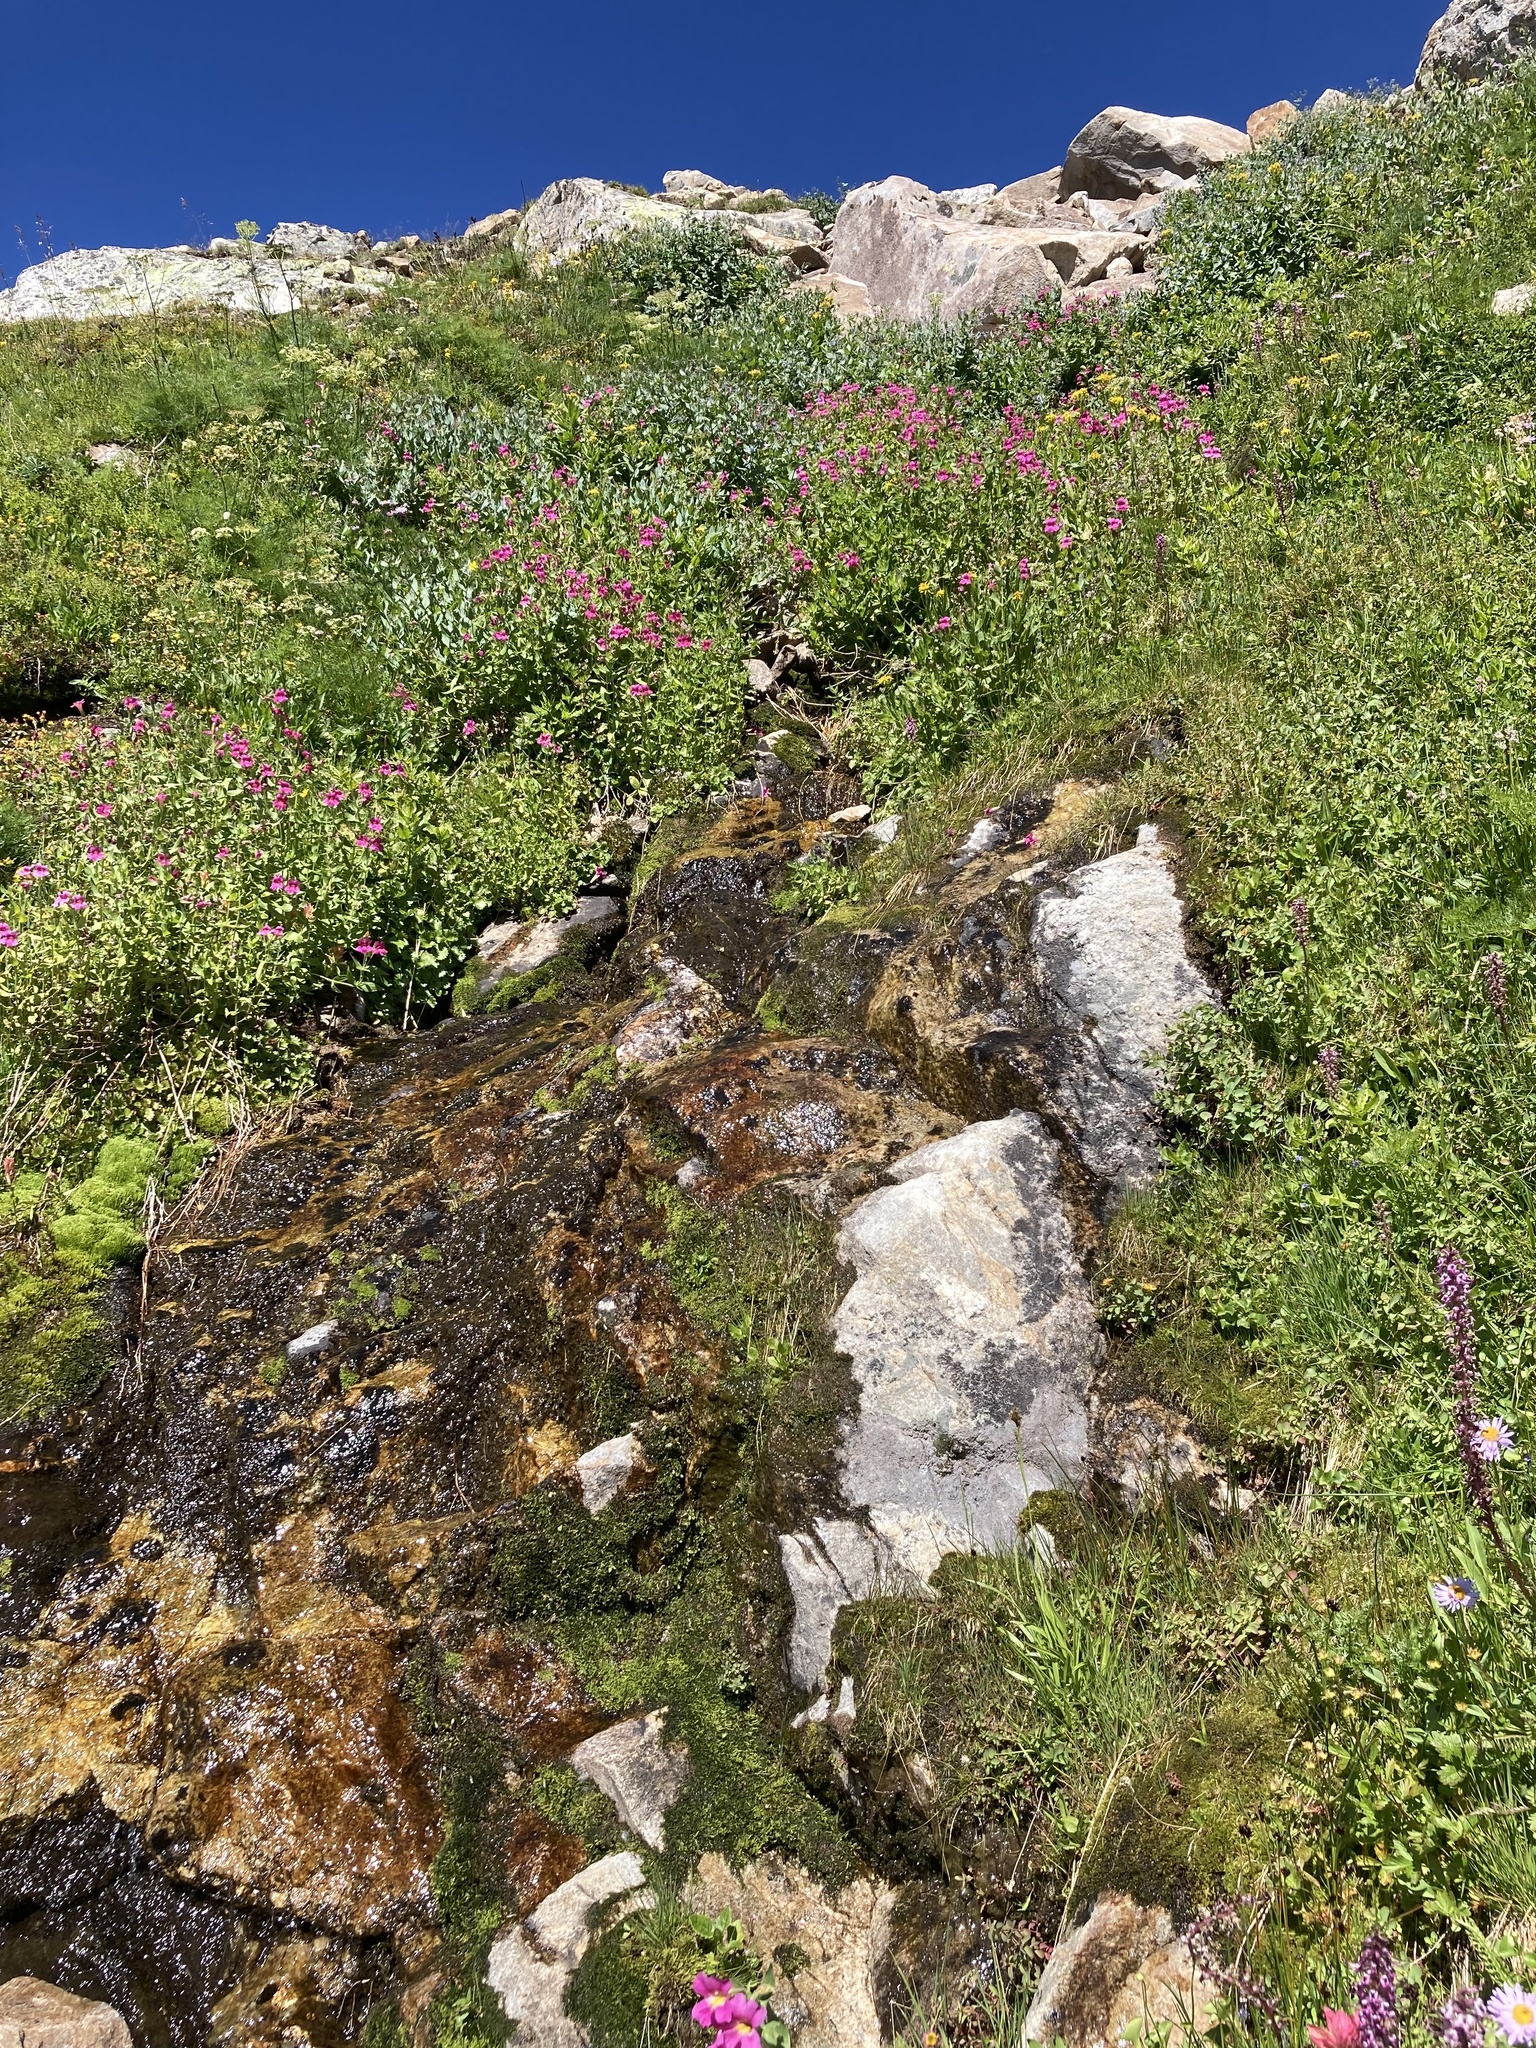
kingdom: Plantae
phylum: Tracheophyta
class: Magnoliopsida
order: Lamiales
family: Phrymaceae
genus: Erythranthe
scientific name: Erythranthe lewisii
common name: Lewis's monkey-flower
